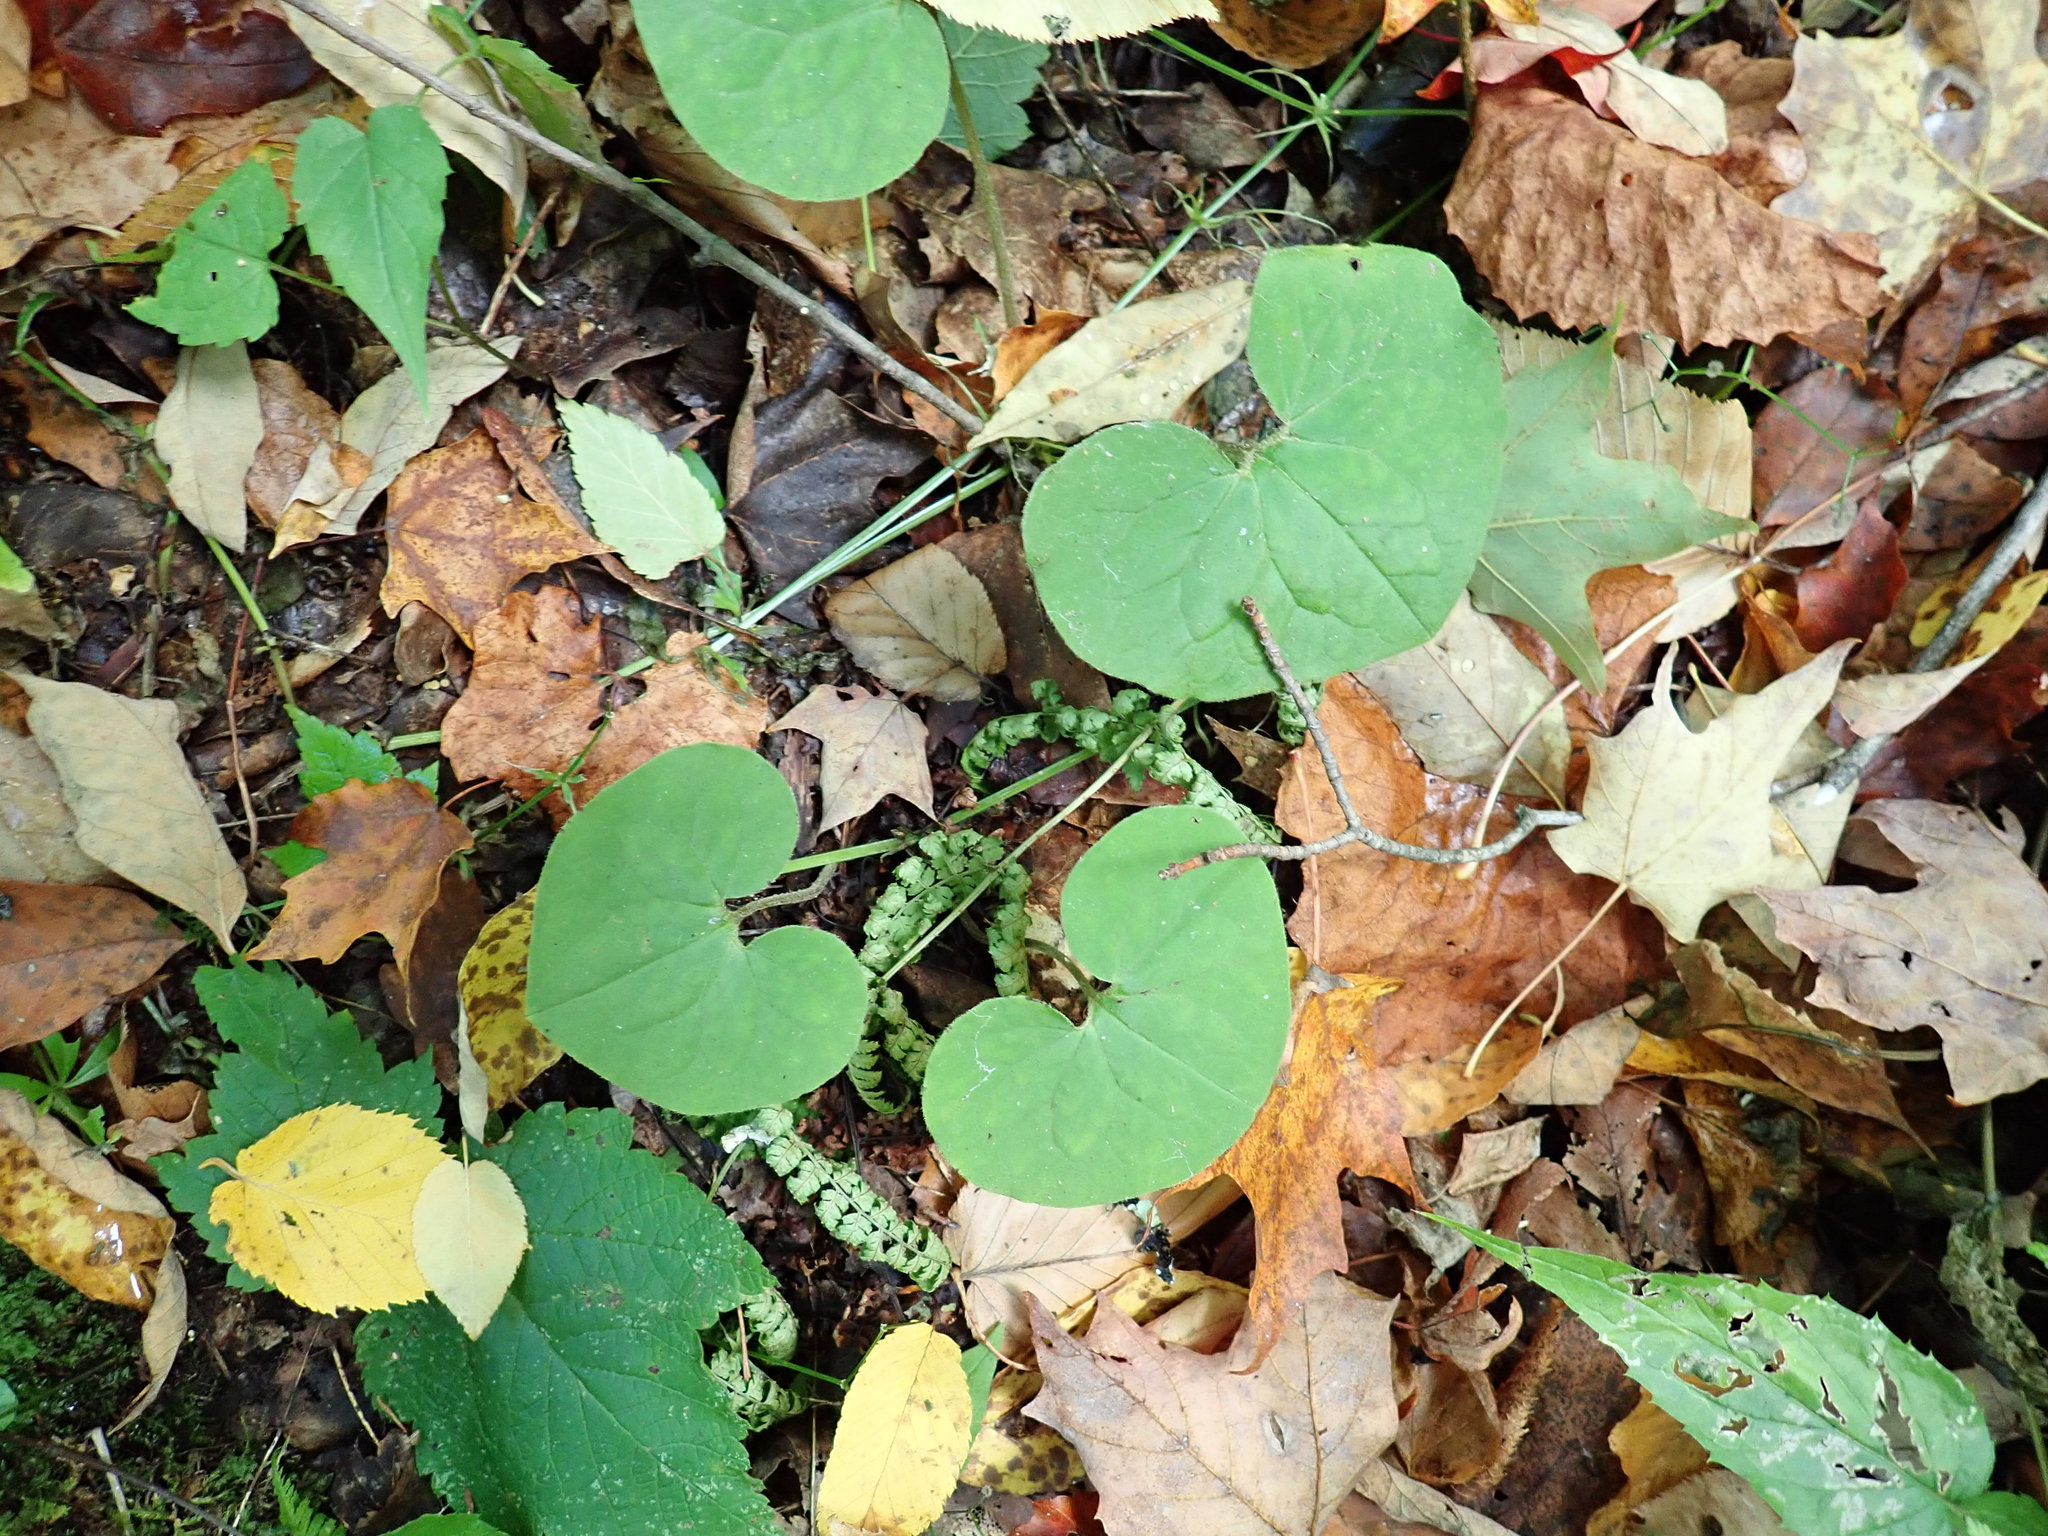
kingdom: Plantae
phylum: Tracheophyta
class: Magnoliopsida
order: Piperales
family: Aristolochiaceae
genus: Asarum
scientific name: Asarum canadense
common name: Wild ginger
